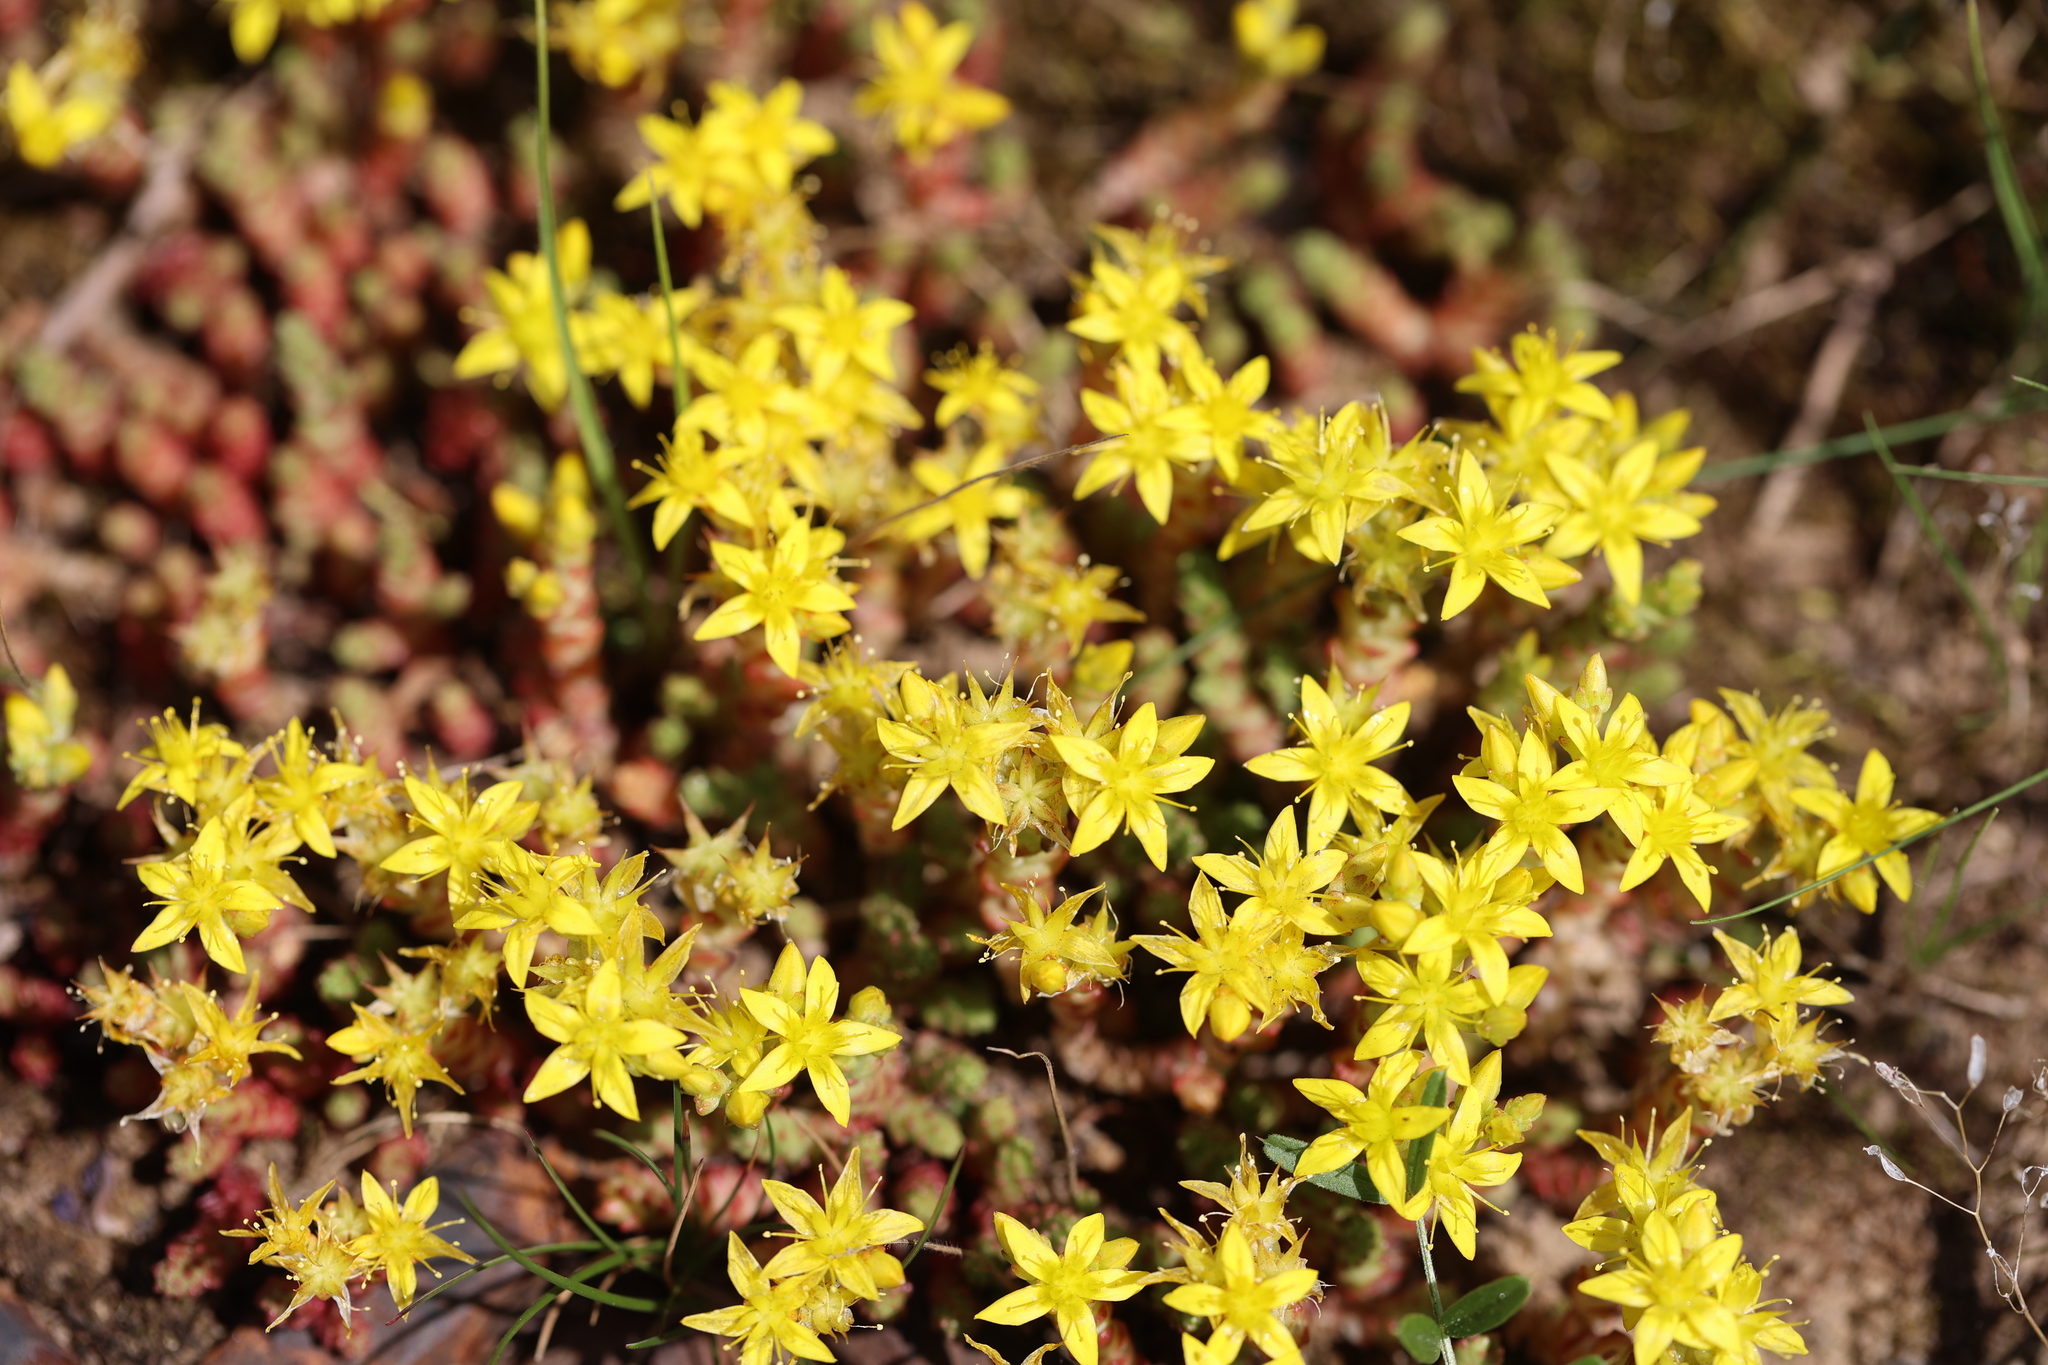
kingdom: Plantae
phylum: Tracheophyta
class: Magnoliopsida
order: Saxifragales
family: Crassulaceae
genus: Sedum
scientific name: Sedum acre
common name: Biting stonecrop
